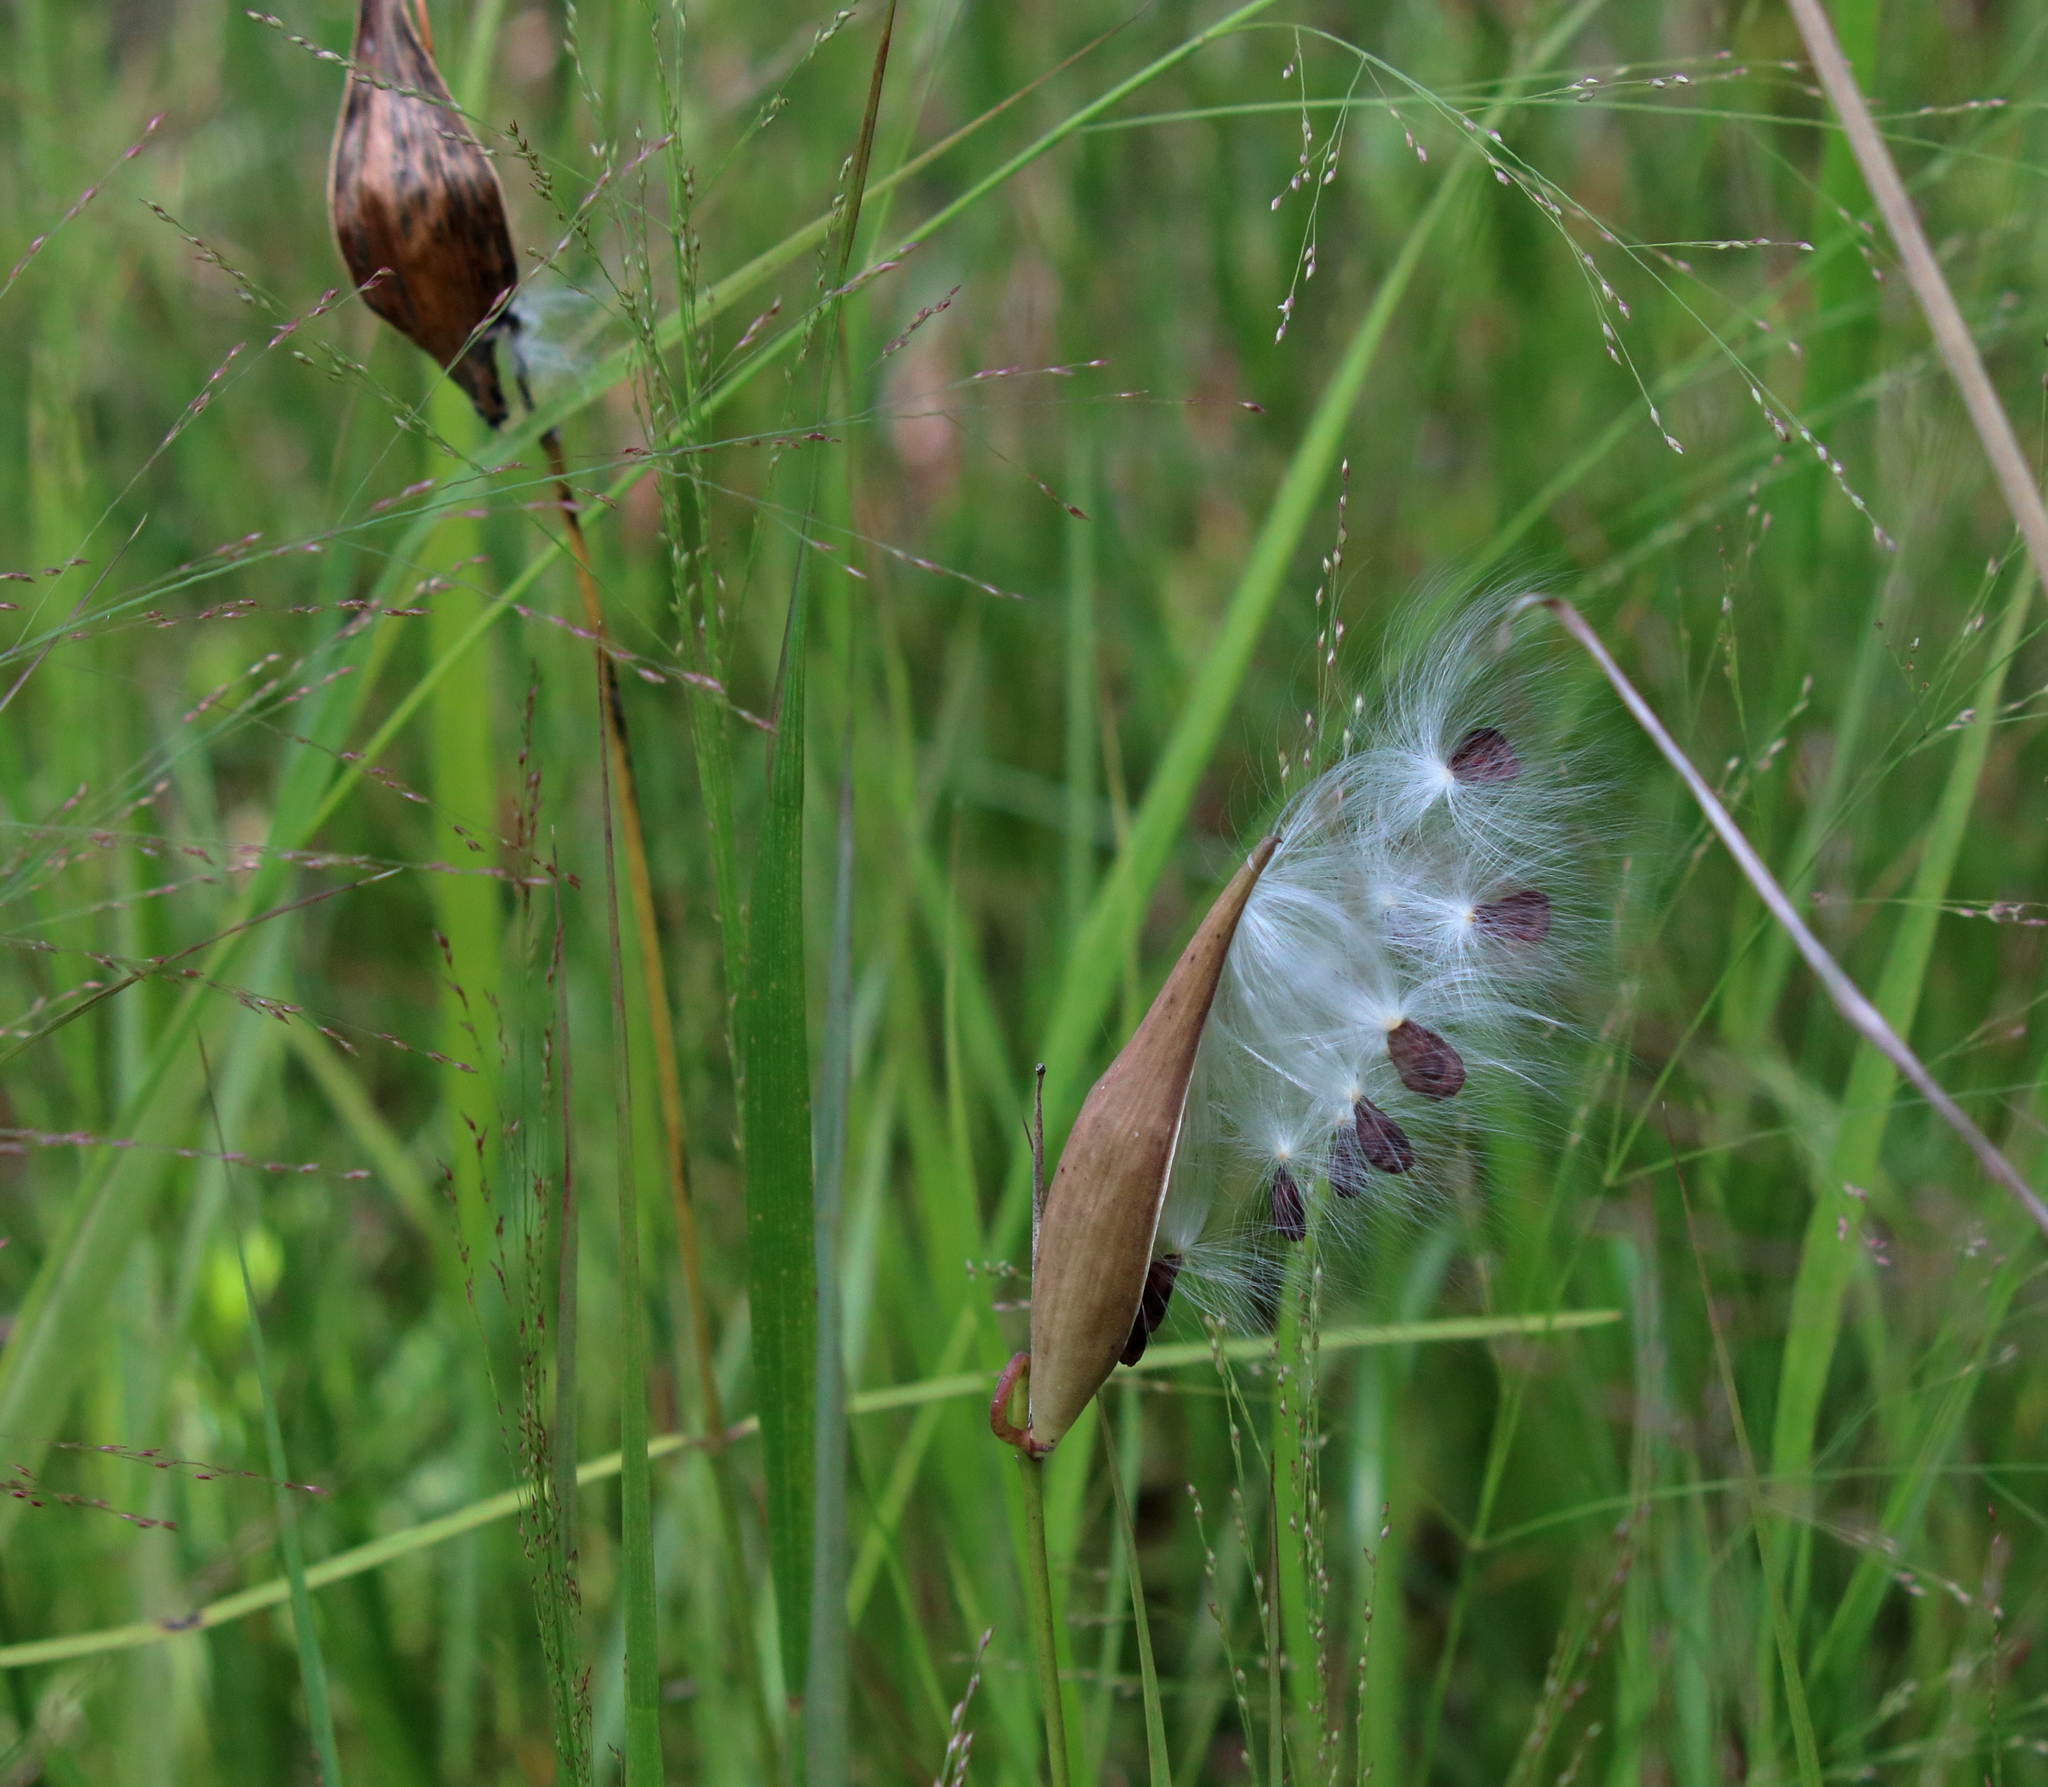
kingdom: Plantae
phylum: Tracheophyta
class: Magnoliopsida
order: Gentianales
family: Apocynaceae
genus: Asclepias
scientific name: Asclepias lanceolata
